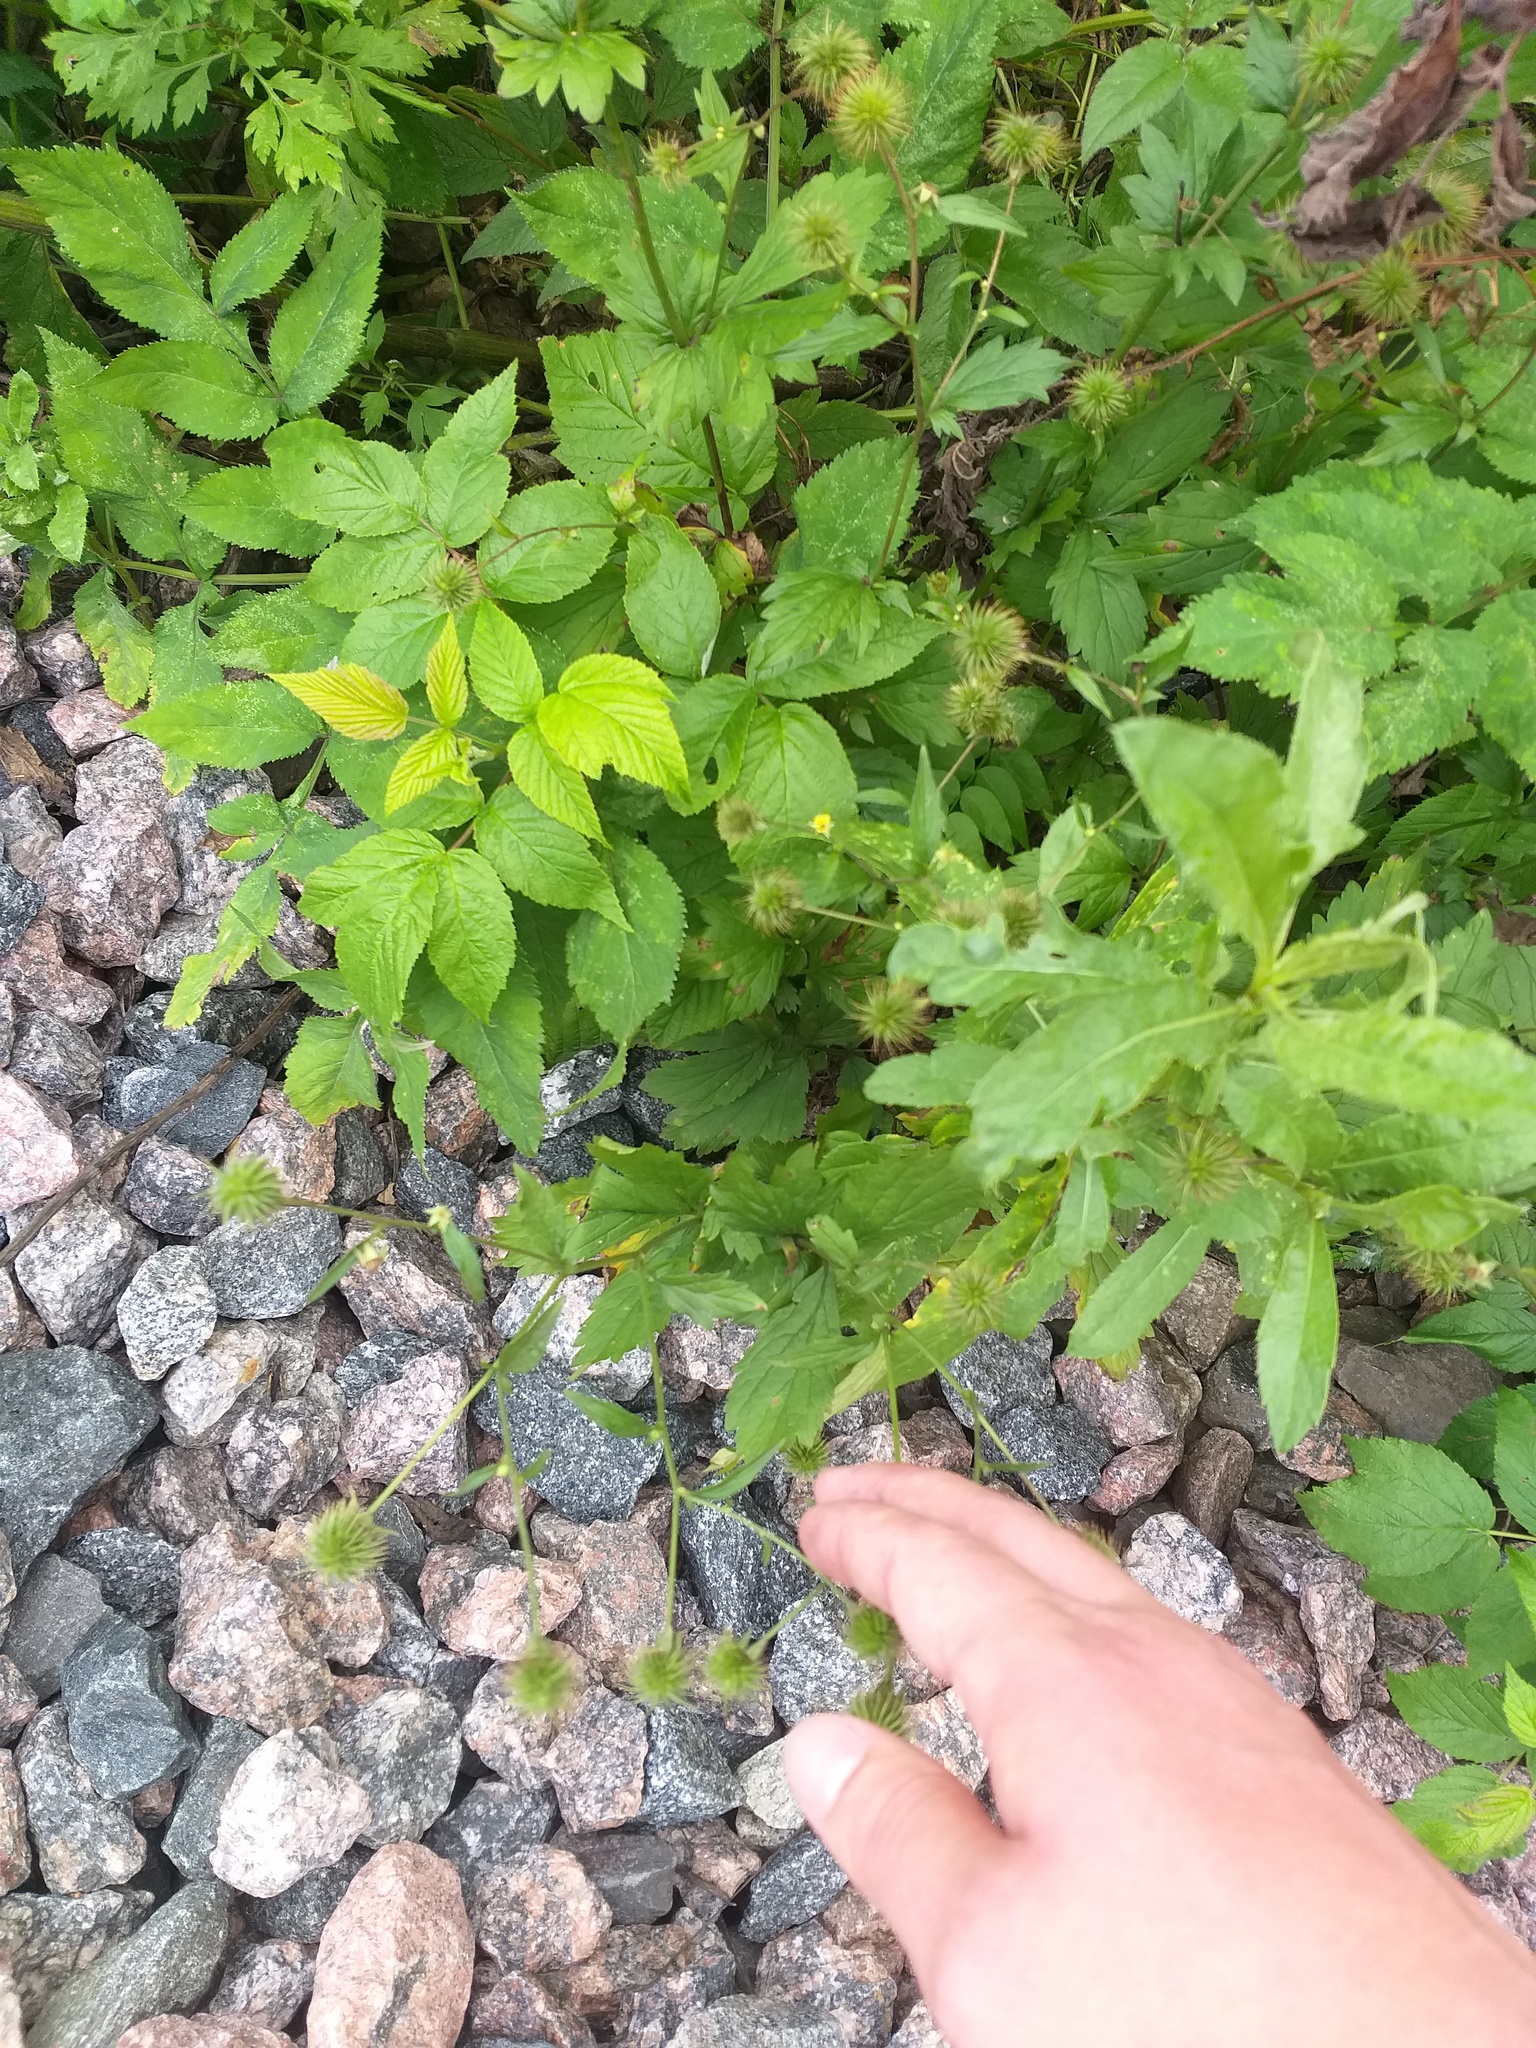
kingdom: Plantae
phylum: Tracheophyta
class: Magnoliopsida
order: Rosales
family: Rosaceae
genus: Geum
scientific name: Geum urbanum
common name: Wood avens
